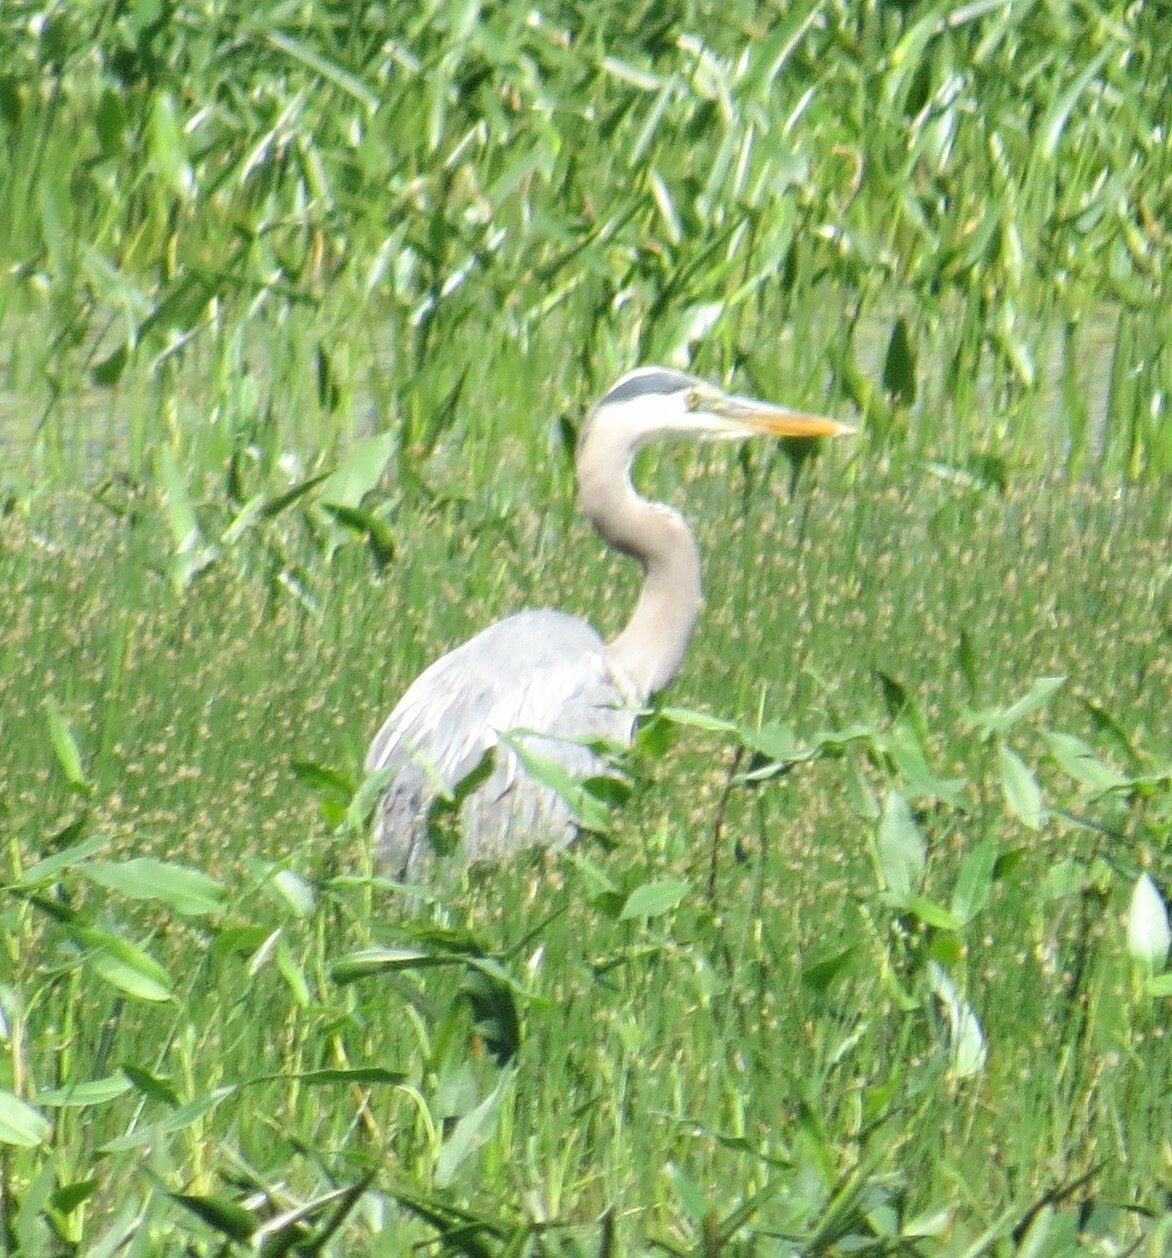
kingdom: Animalia
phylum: Chordata
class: Aves
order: Pelecaniformes
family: Ardeidae
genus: Ardea
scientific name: Ardea herodias
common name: Great blue heron
